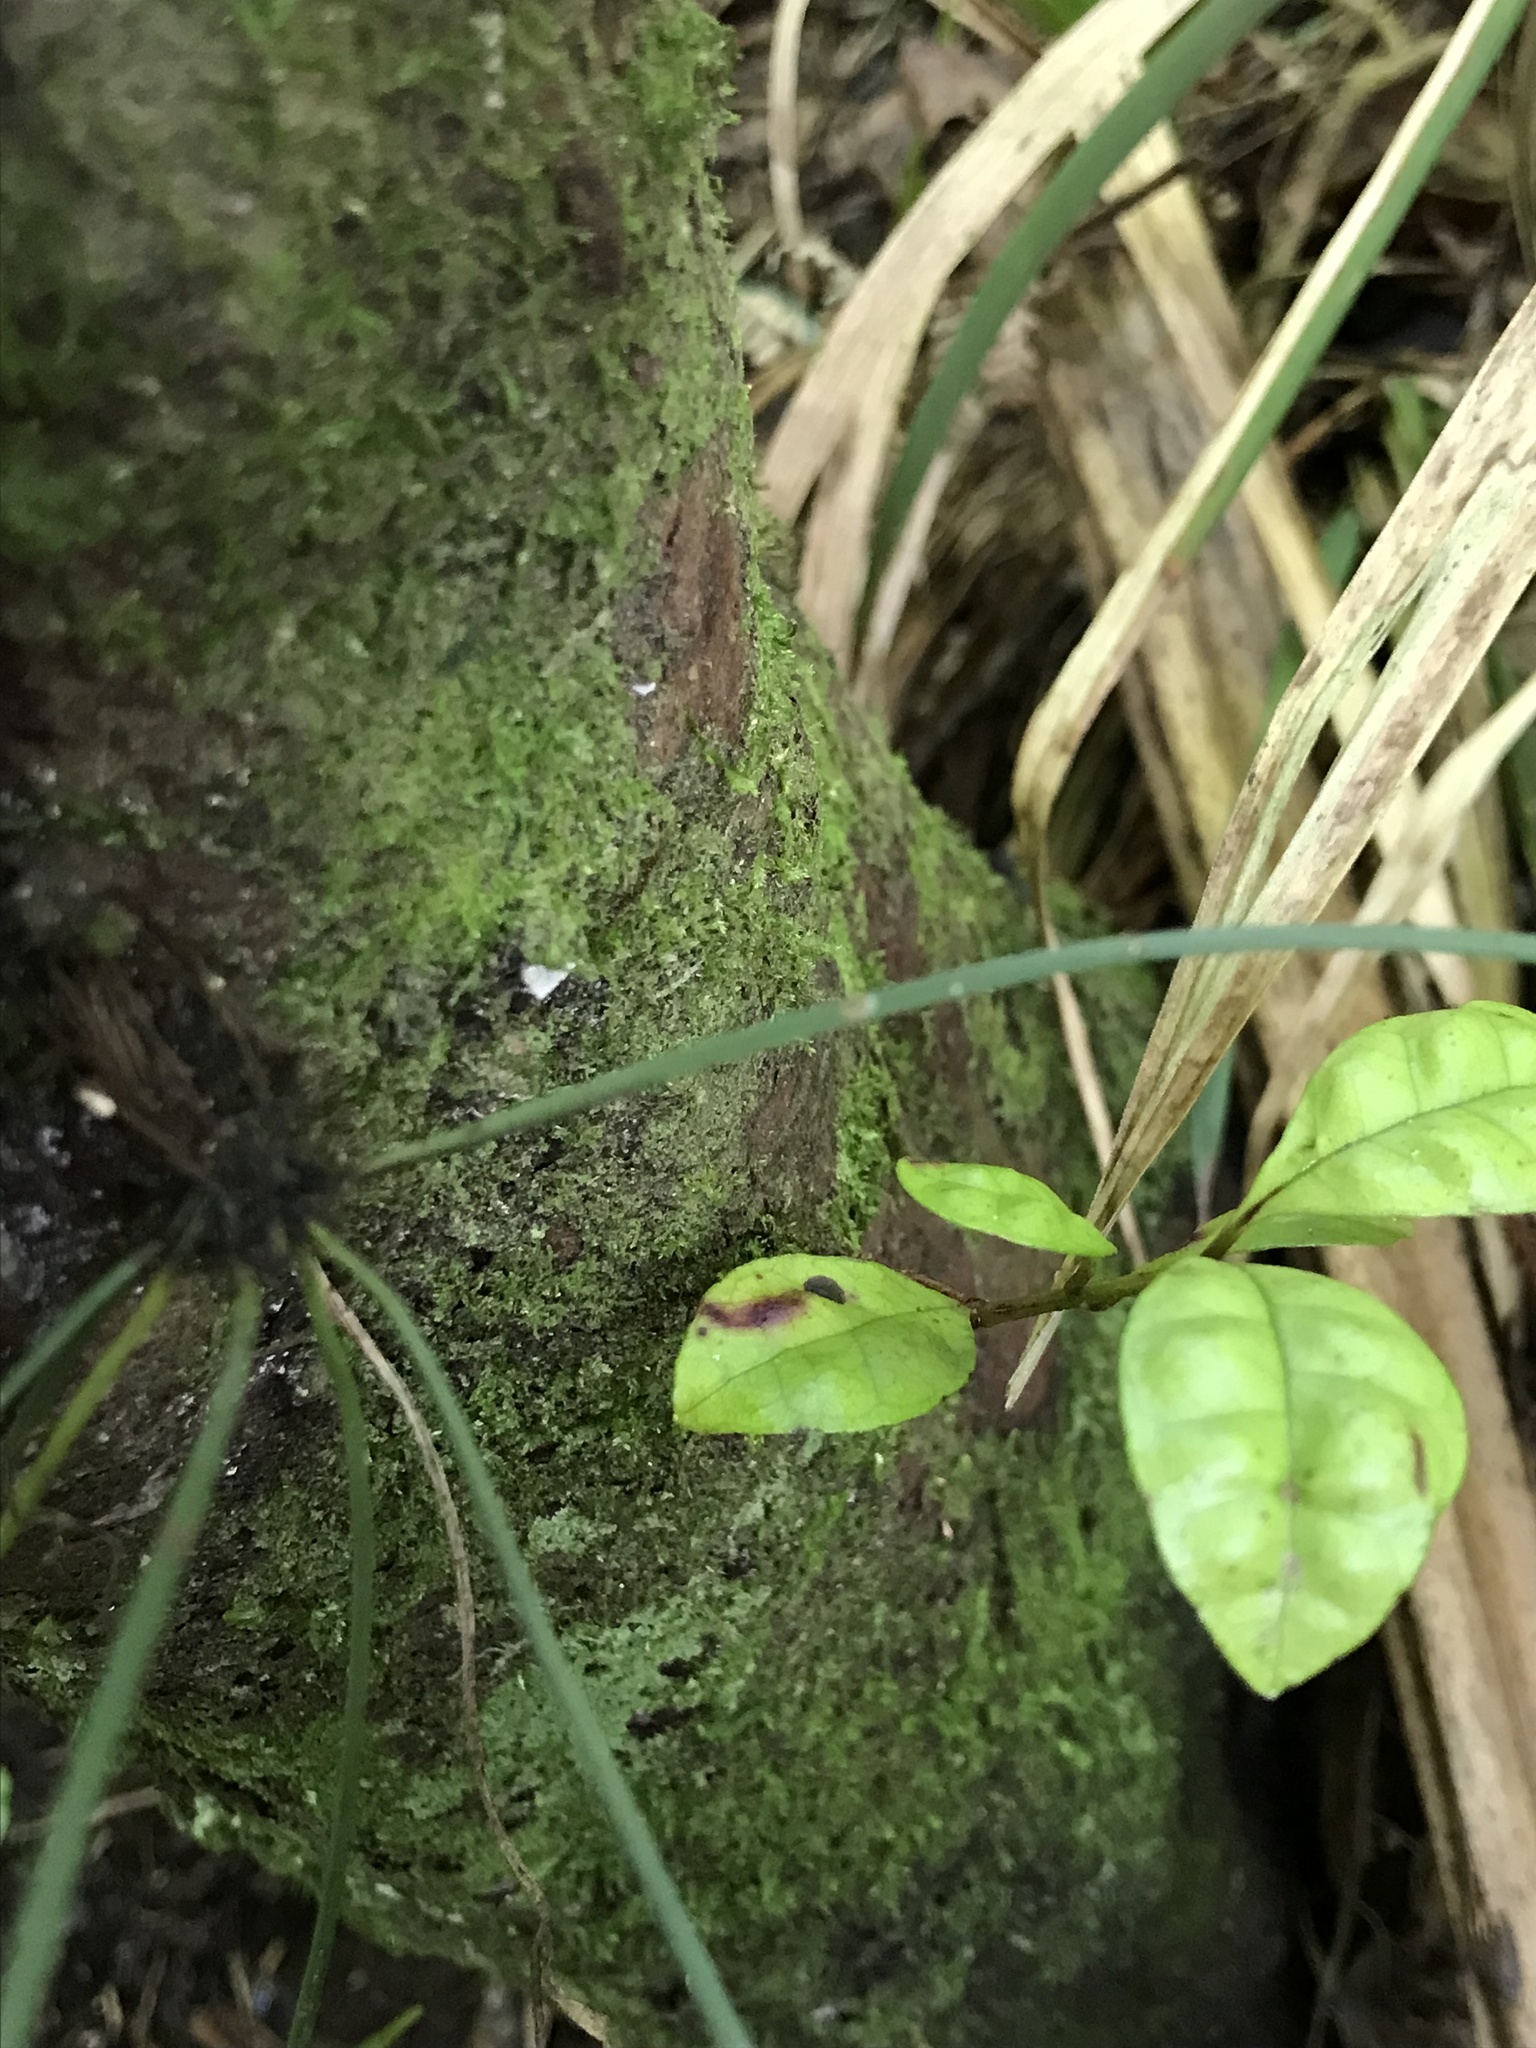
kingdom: Plantae
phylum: Tracheophyta
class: Magnoliopsida
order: Myrtales
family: Myrtaceae
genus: Lophomyrtus
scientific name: Lophomyrtus bullata
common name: Rama rama
